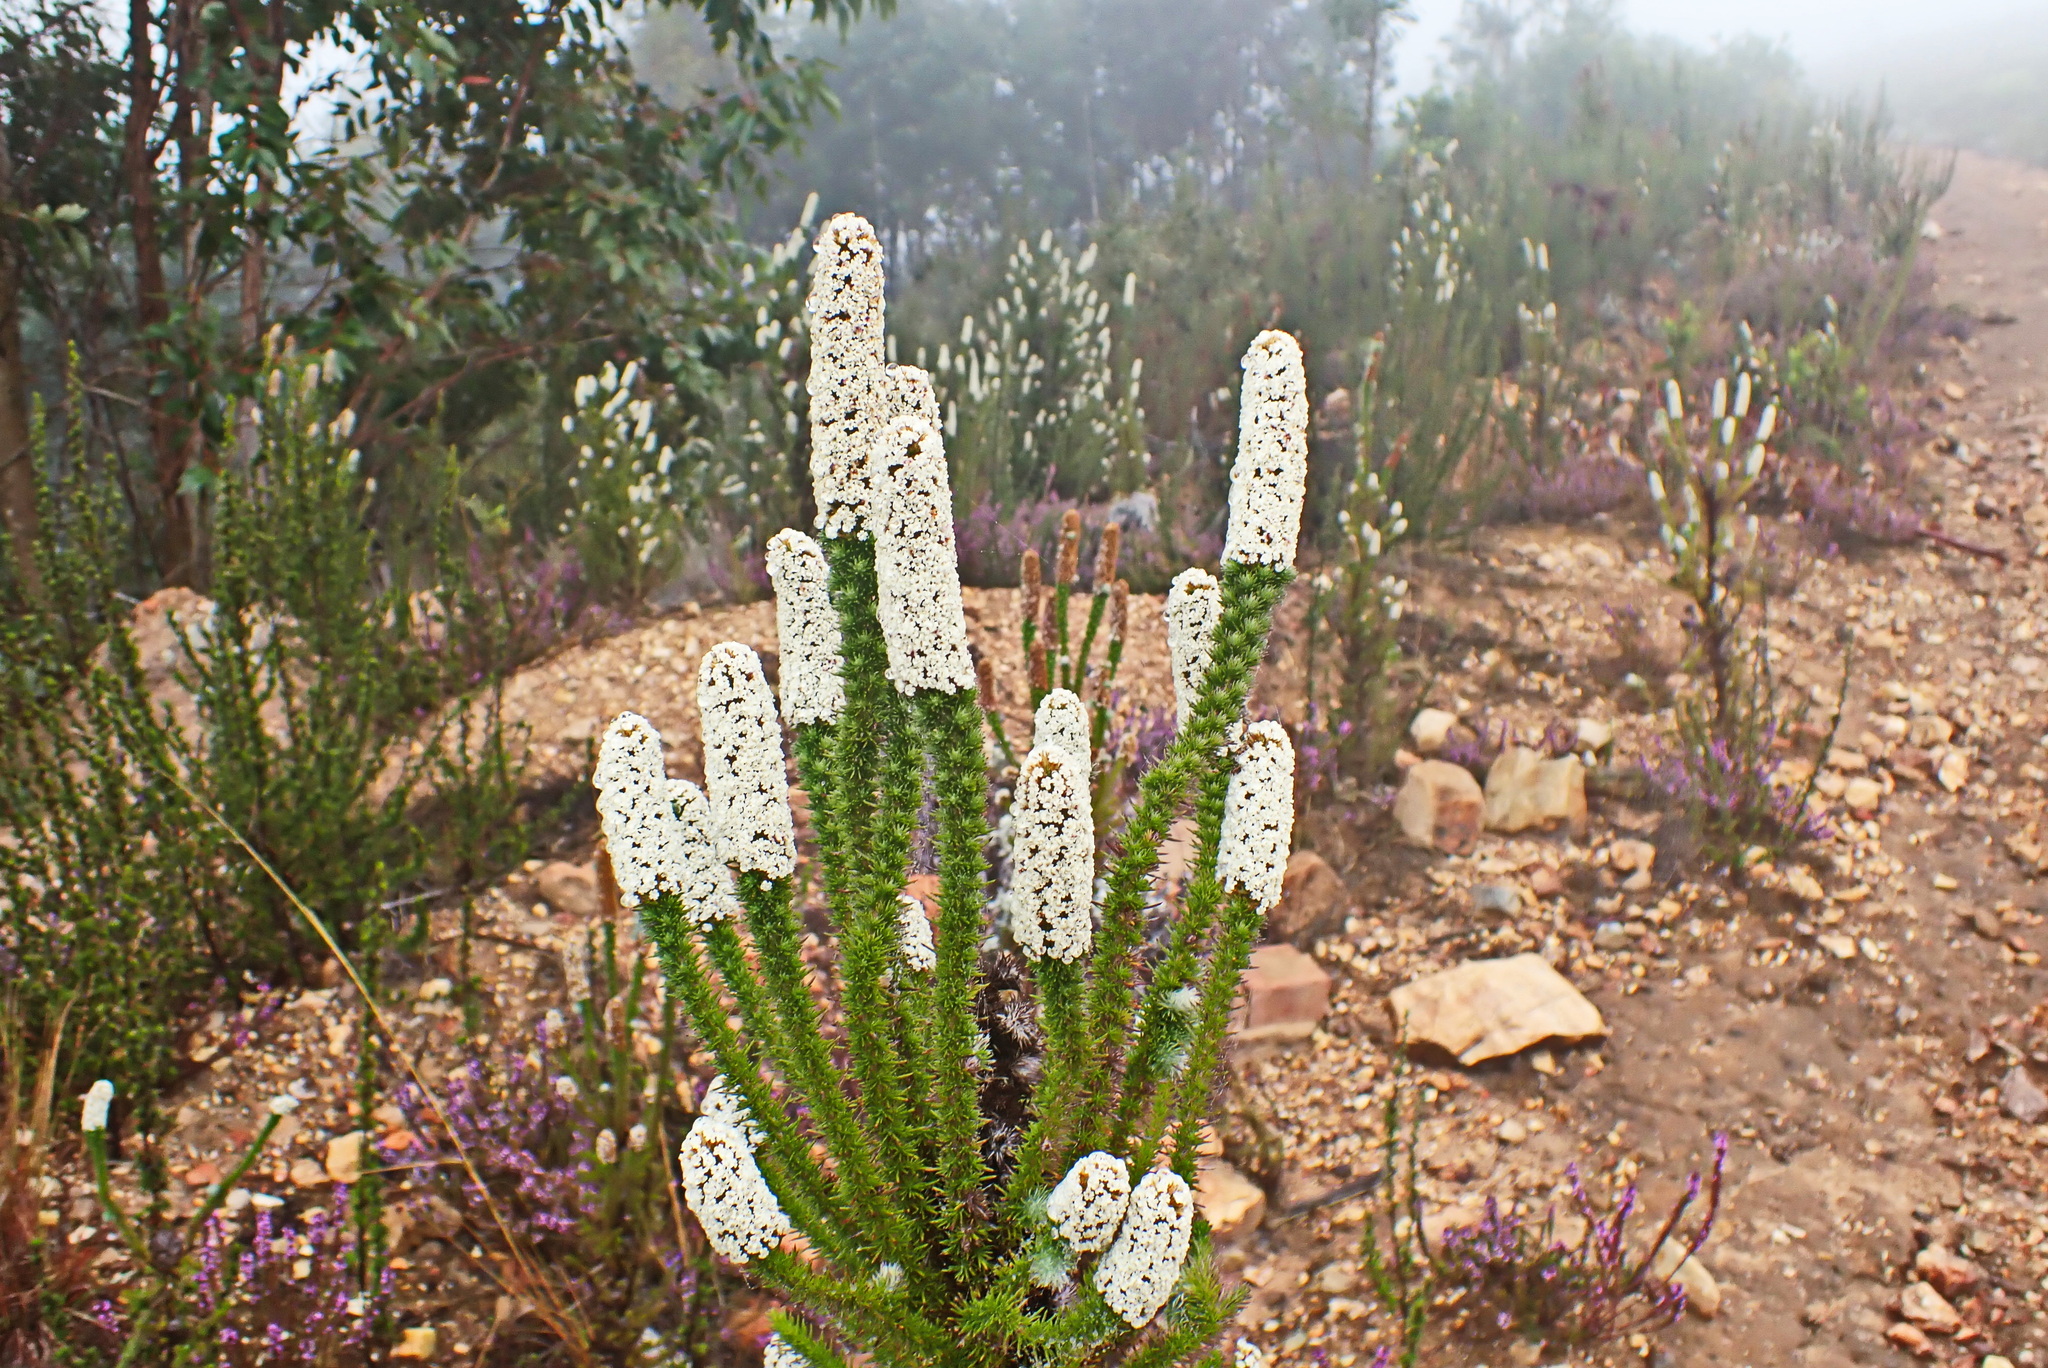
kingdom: Plantae
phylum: Tracheophyta
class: Magnoliopsida
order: Asterales
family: Asteraceae
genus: Stoebe
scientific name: Stoebe alopecuroides
